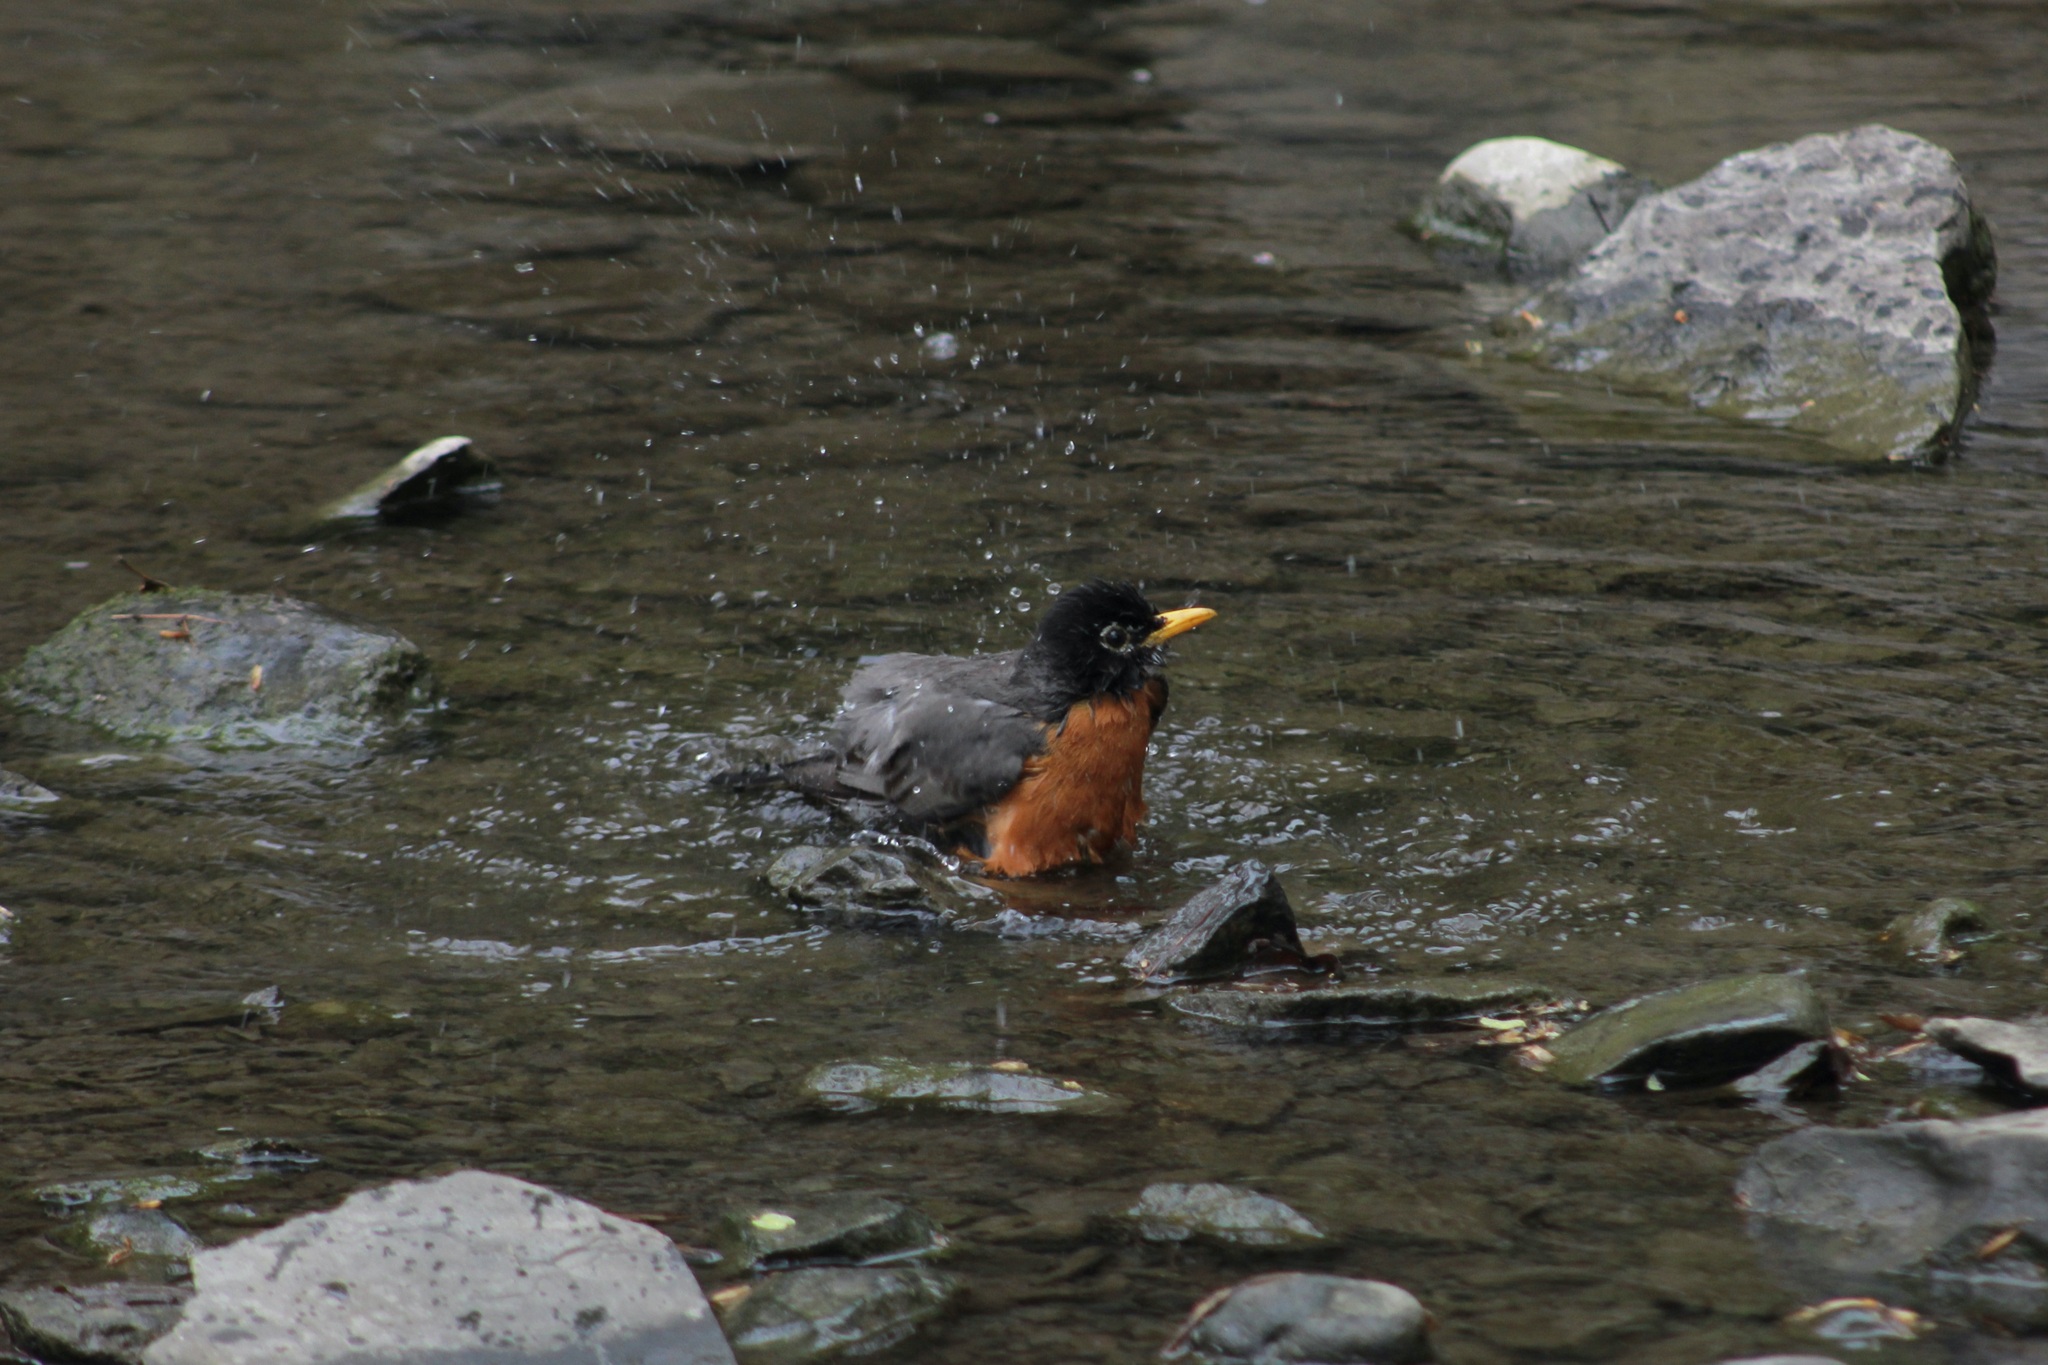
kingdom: Animalia
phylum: Chordata
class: Aves
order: Passeriformes
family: Turdidae
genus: Turdus
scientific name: Turdus migratorius
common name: American robin
